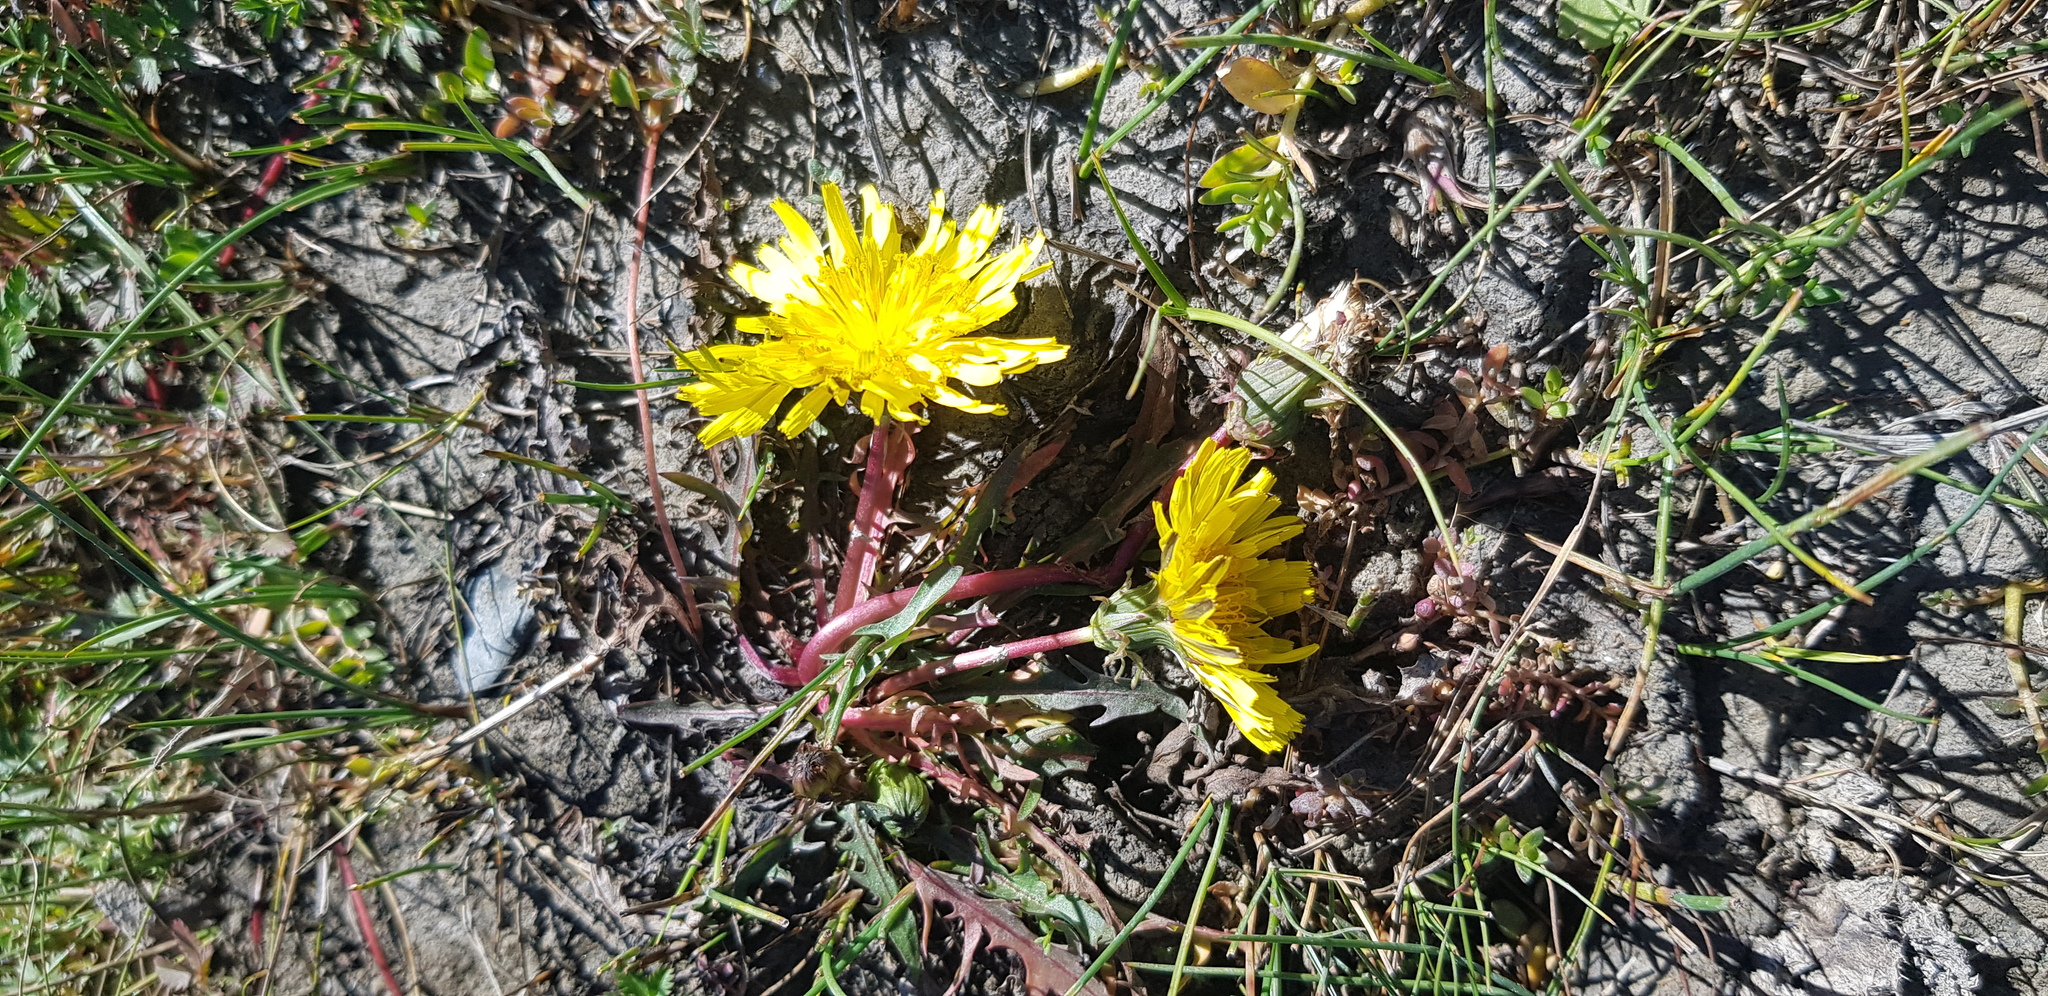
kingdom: Plantae
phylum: Tracheophyta
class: Magnoliopsida
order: Asterales
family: Asteraceae
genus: Taraxacum
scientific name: Taraxacum officinale
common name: Common dandelion
